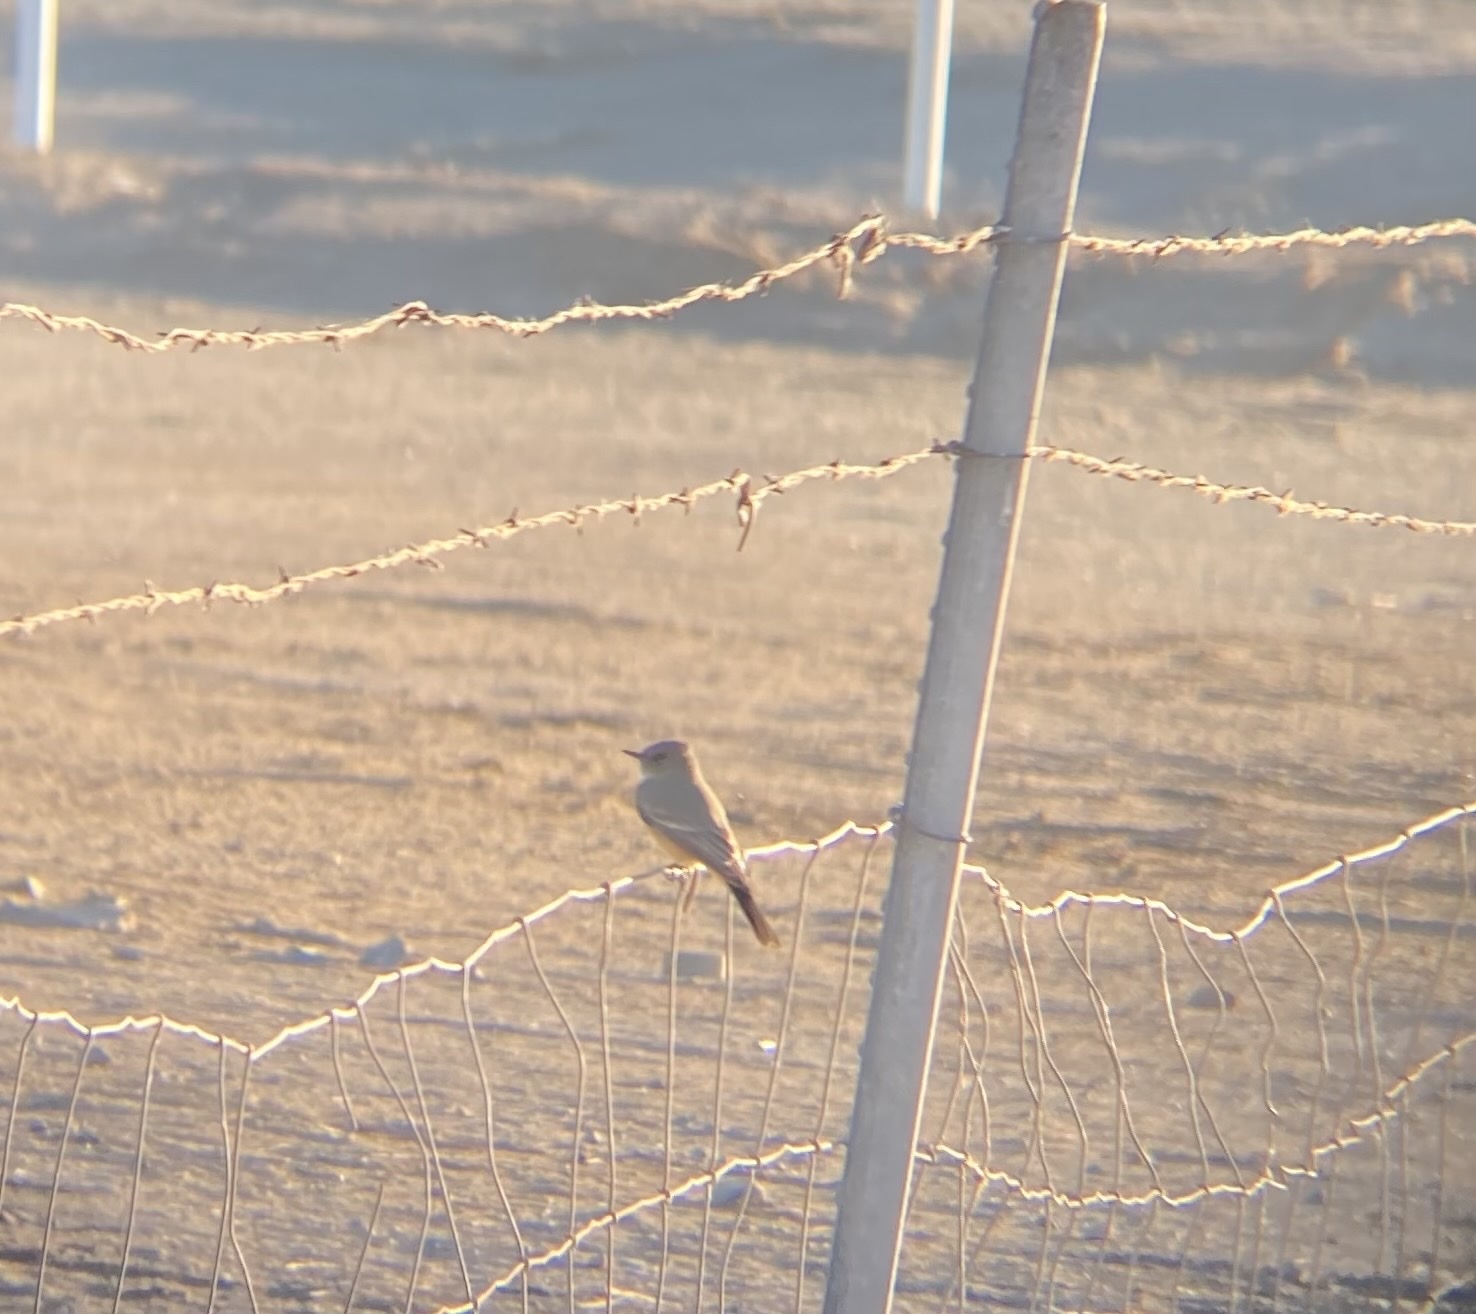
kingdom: Animalia
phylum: Chordata
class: Aves
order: Passeriformes
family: Tyrannidae
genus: Sayornis
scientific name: Sayornis saya
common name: Say's phoebe
